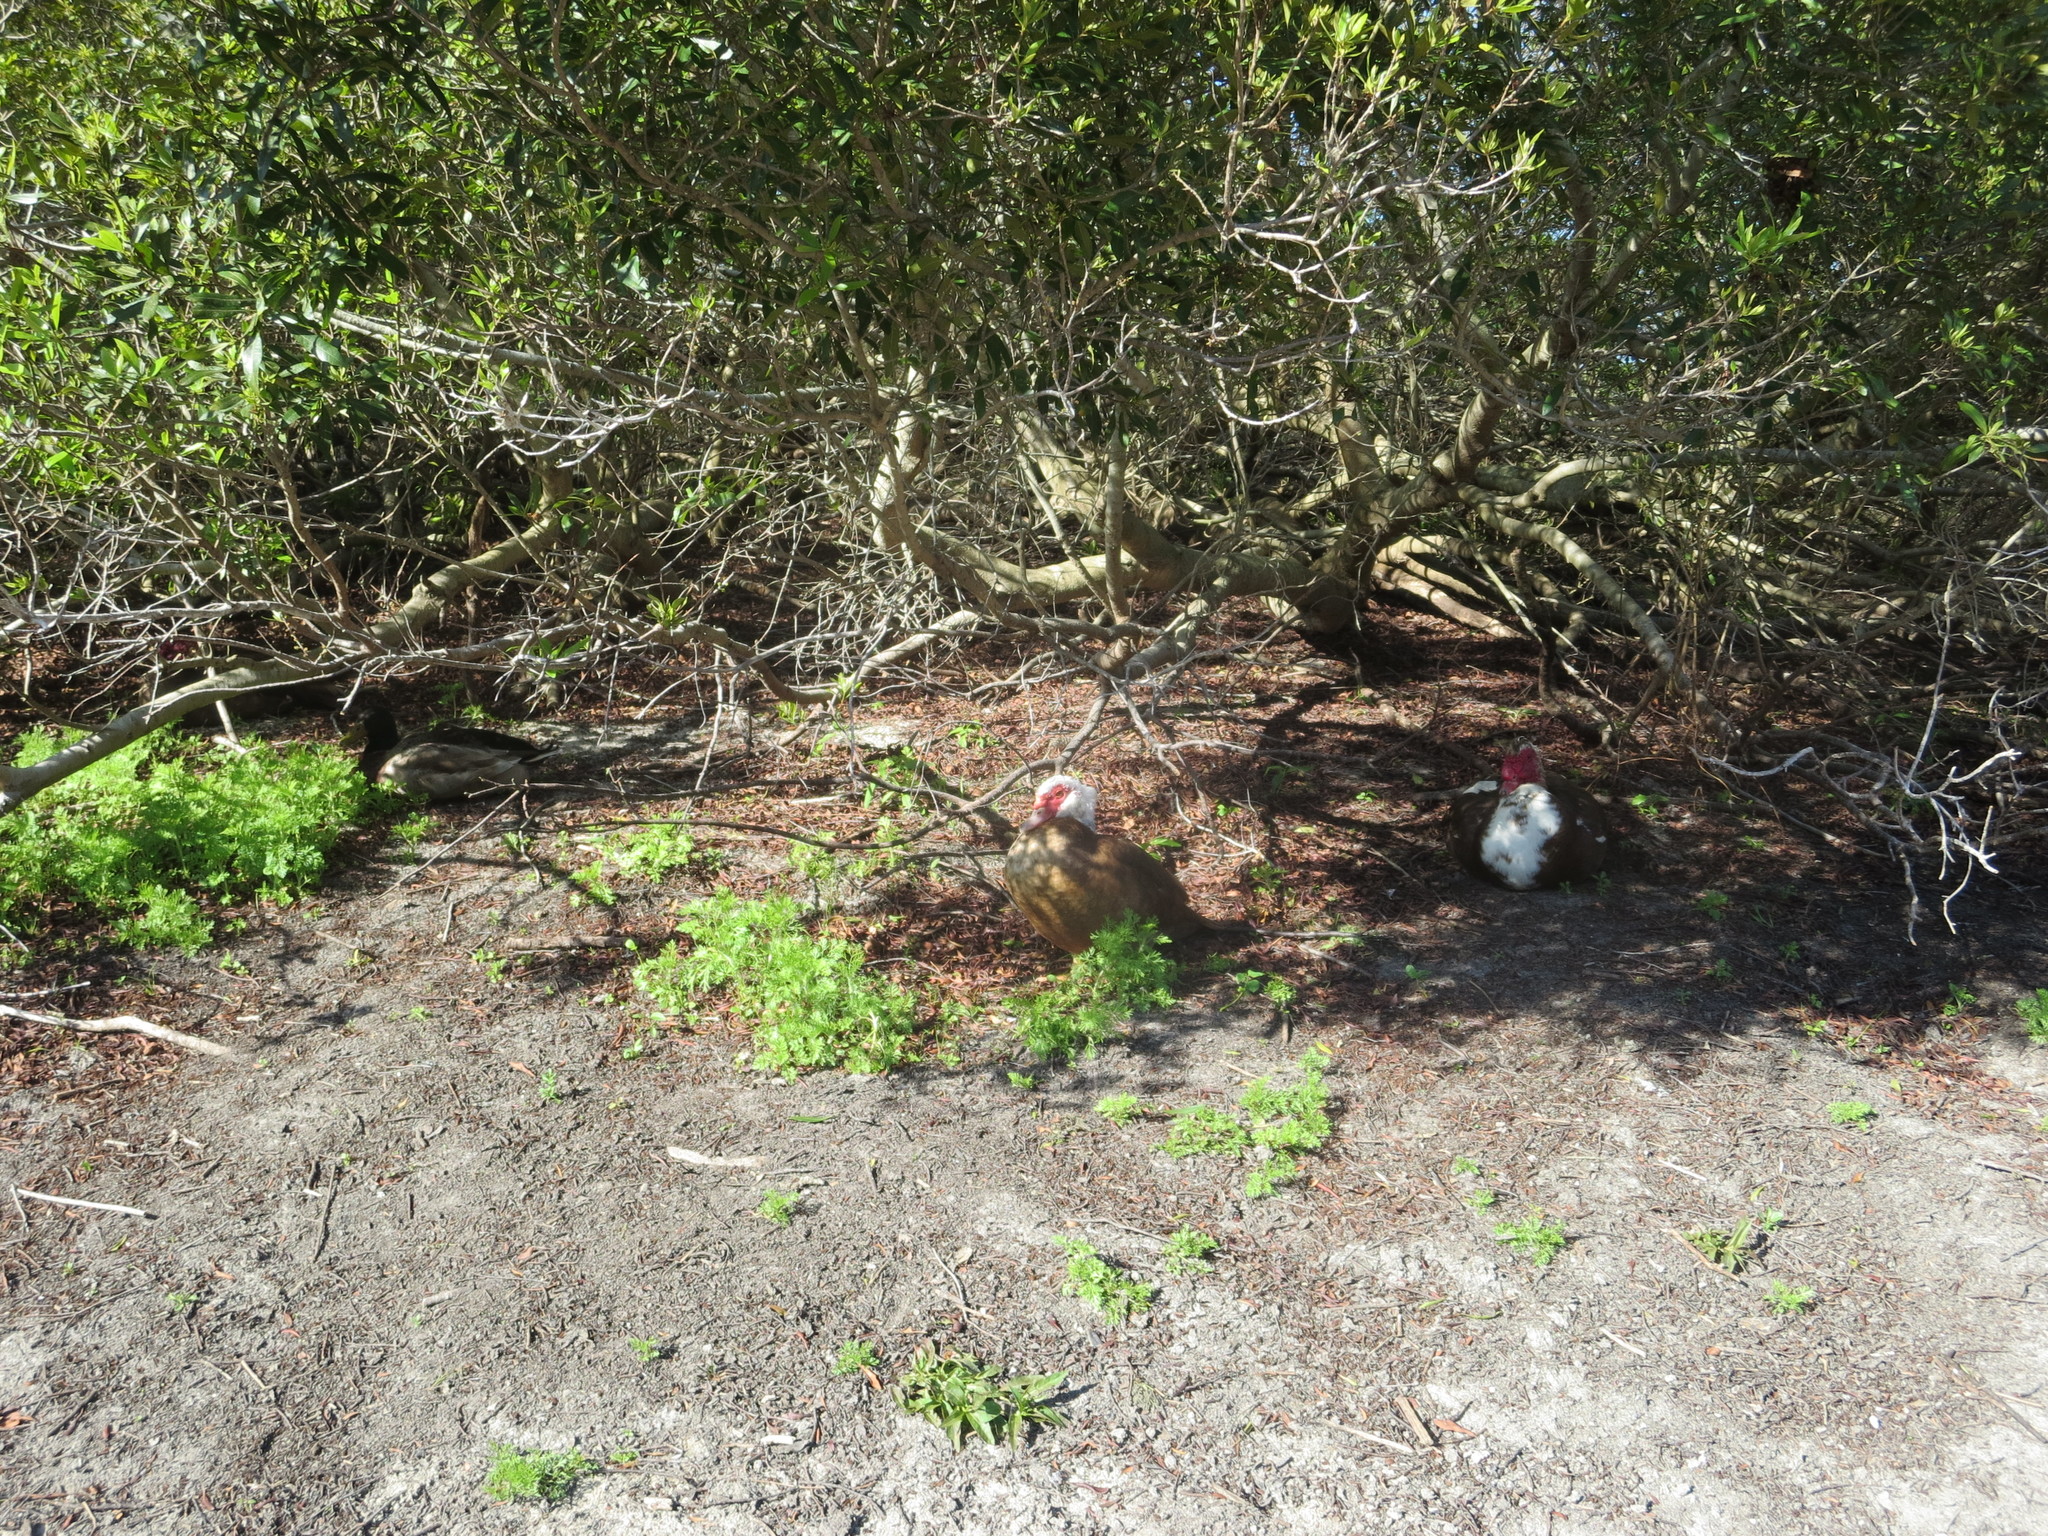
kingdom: Animalia
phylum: Chordata
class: Aves
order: Anseriformes
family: Anatidae
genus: Cairina
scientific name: Cairina moschata
